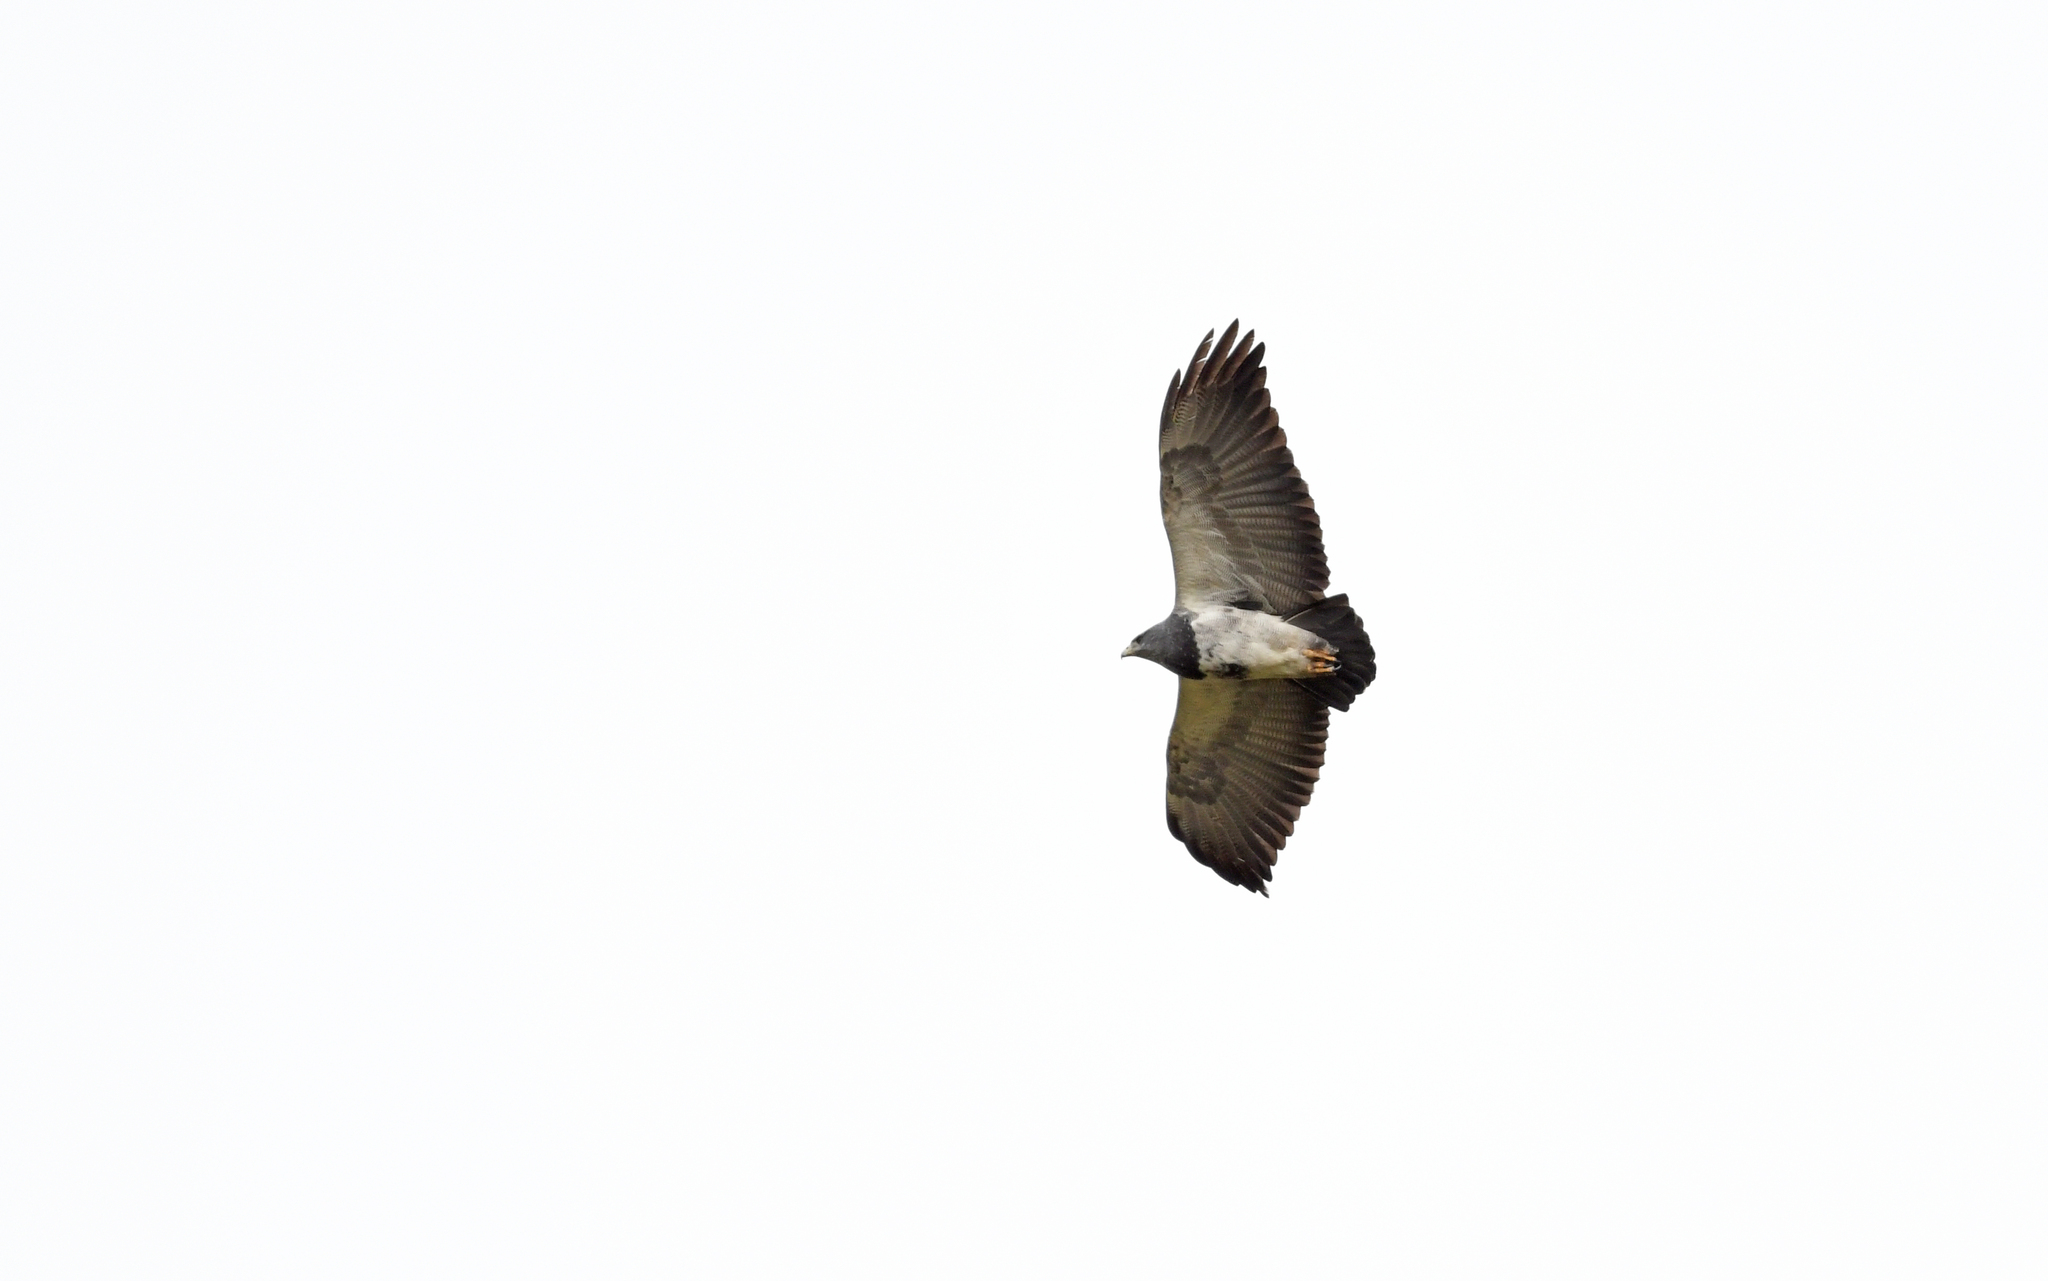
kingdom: Animalia
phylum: Chordata
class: Aves
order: Accipitriformes
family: Accipitridae
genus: Geranoaetus
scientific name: Geranoaetus melanoleucus
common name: Black-chested buzzard-eagle
